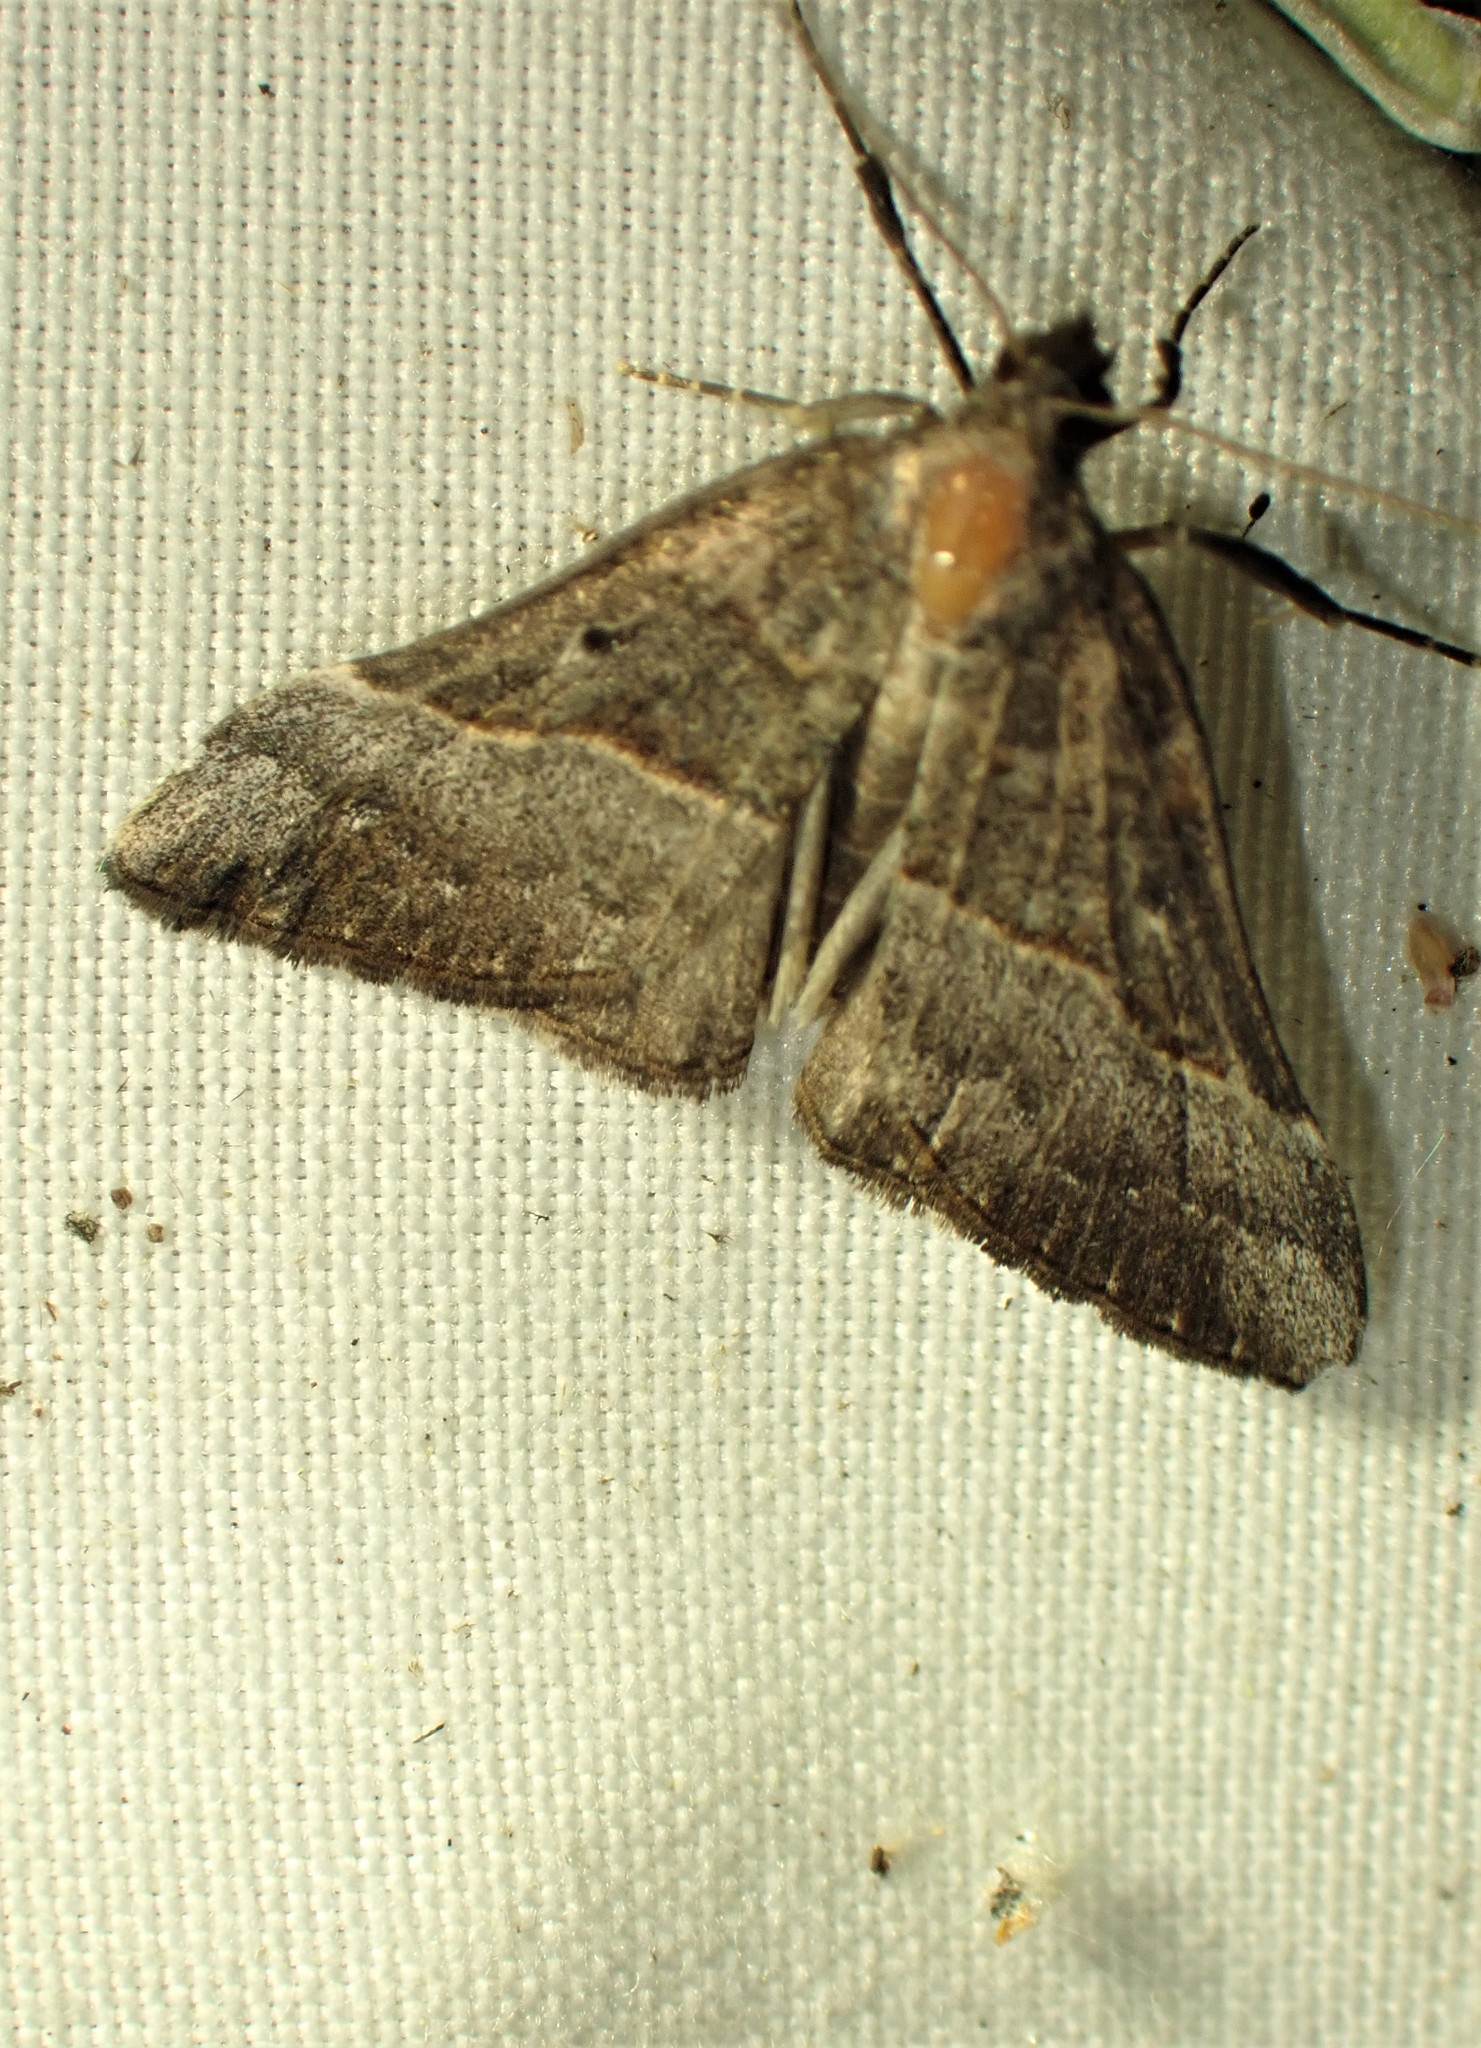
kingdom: Animalia
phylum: Arthropoda
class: Insecta
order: Lepidoptera
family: Erebidae
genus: Hypena
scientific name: Hypena eductalis
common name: Red-footed snout
